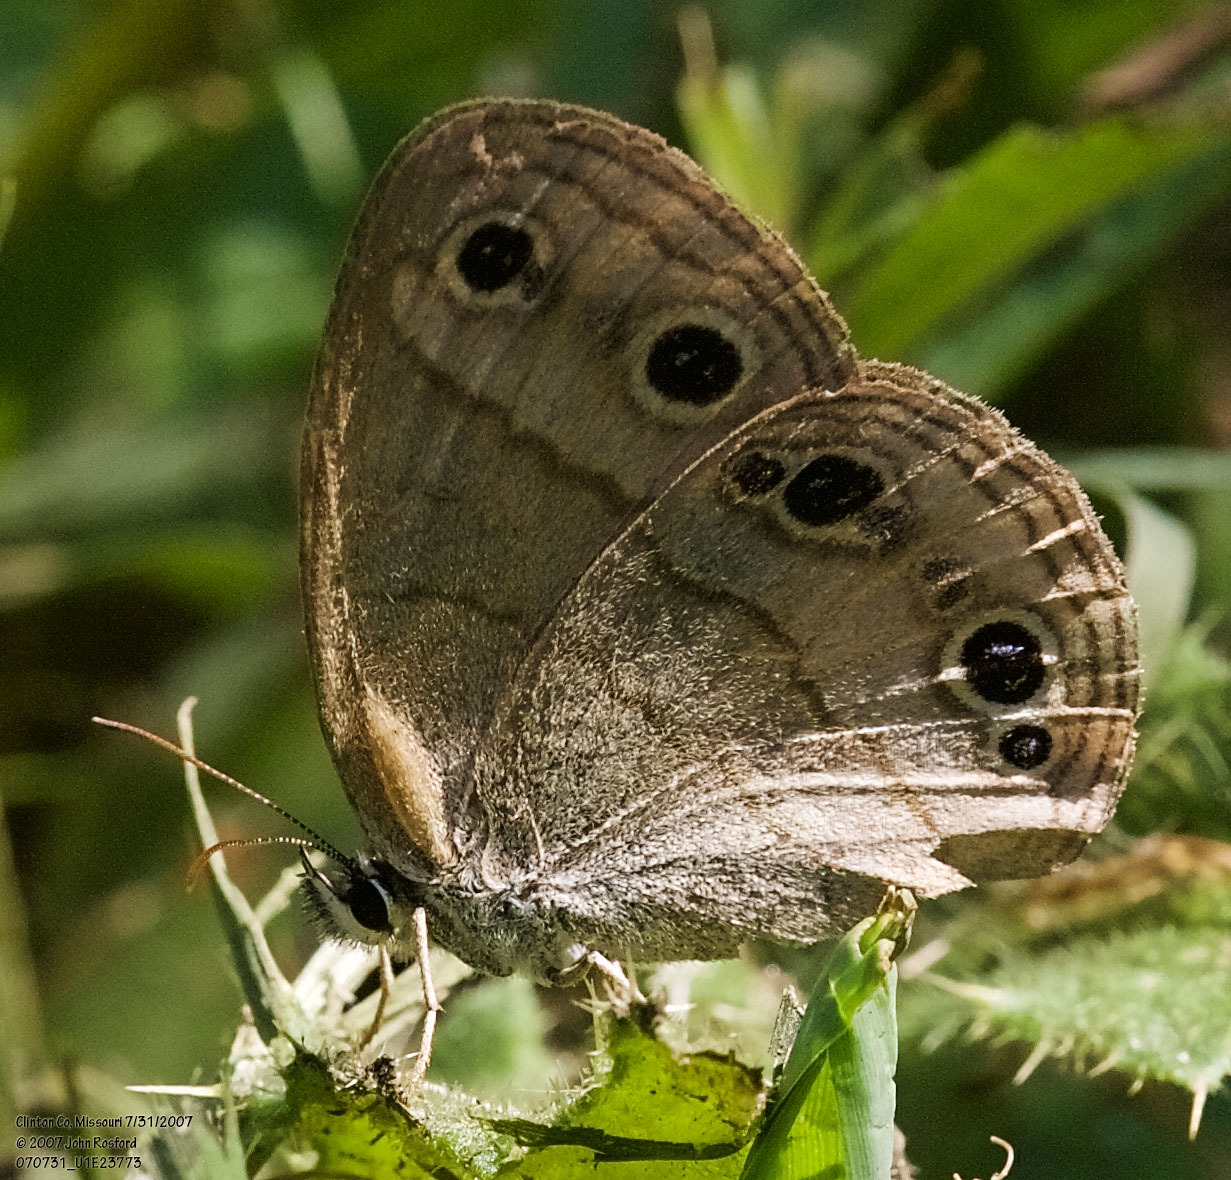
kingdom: Animalia
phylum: Arthropoda
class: Insecta
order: Lepidoptera
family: Nymphalidae
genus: Euptychia
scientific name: Euptychia cymela
